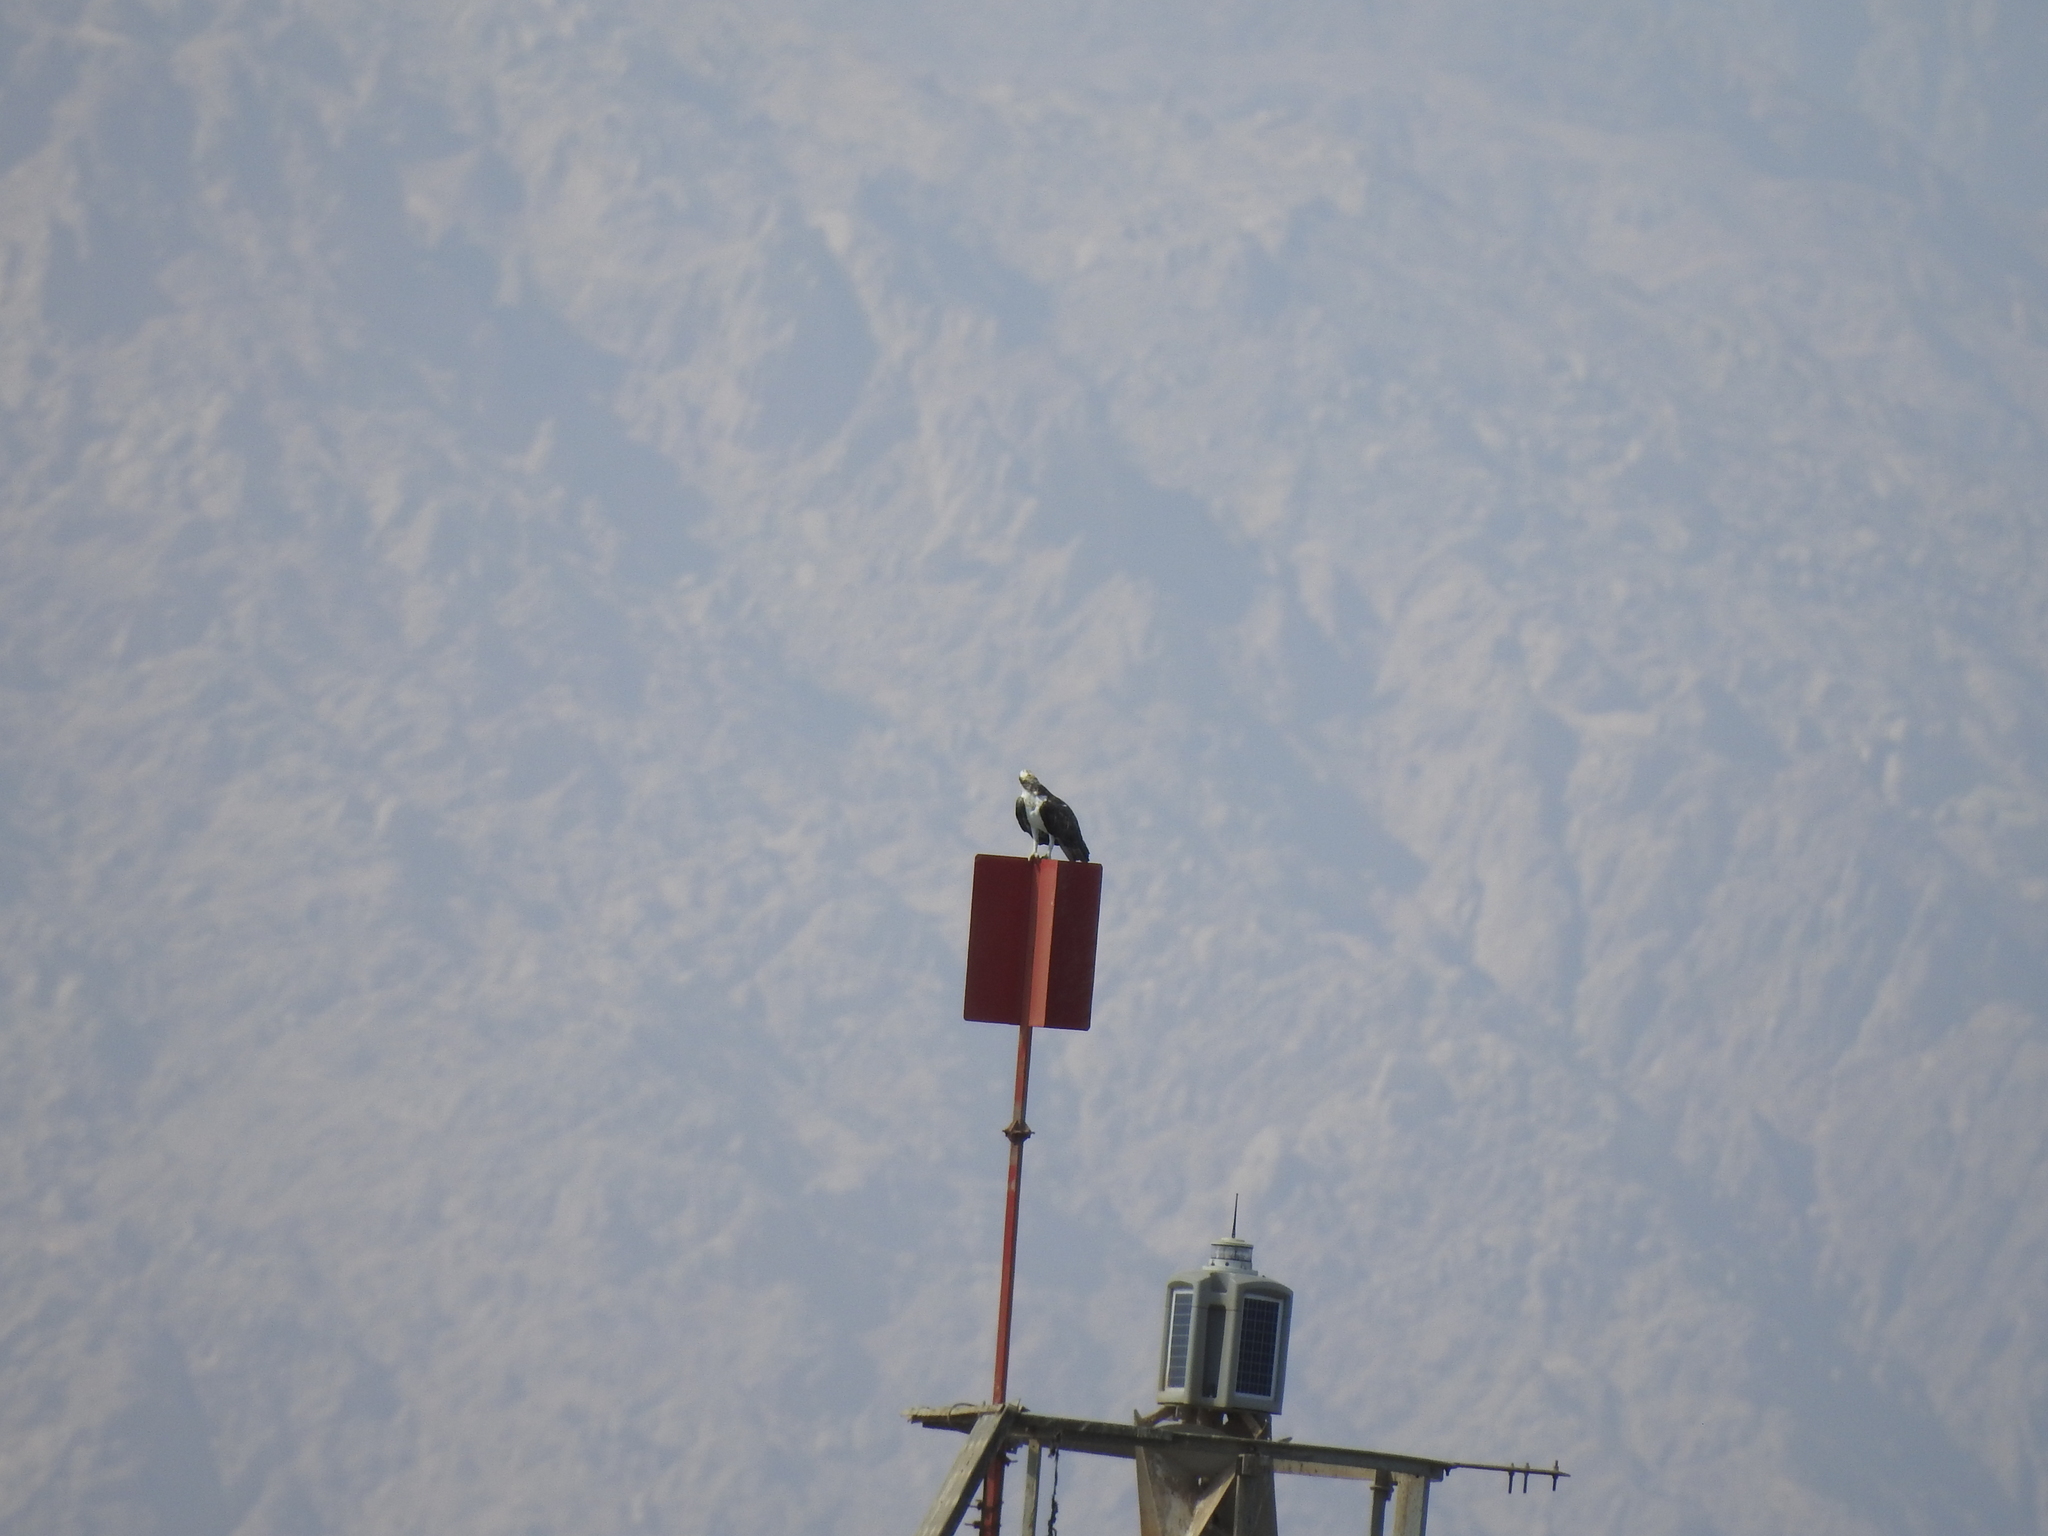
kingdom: Animalia
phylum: Chordata
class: Aves
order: Accipitriformes
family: Pandionidae
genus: Pandion
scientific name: Pandion haliaetus
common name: Osprey
